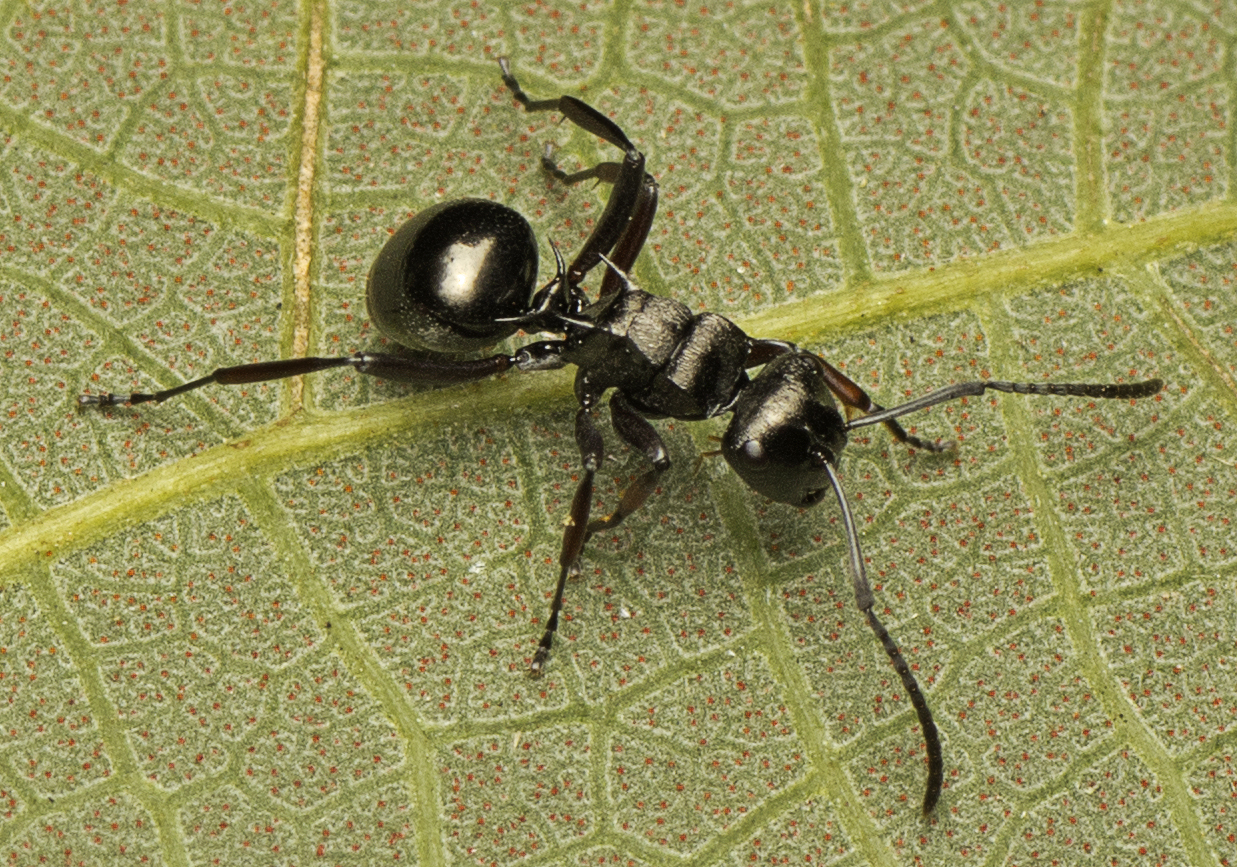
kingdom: Animalia
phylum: Arthropoda
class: Insecta
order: Hymenoptera
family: Formicidae
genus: Polyrhachis
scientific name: Polyrhachis clio
